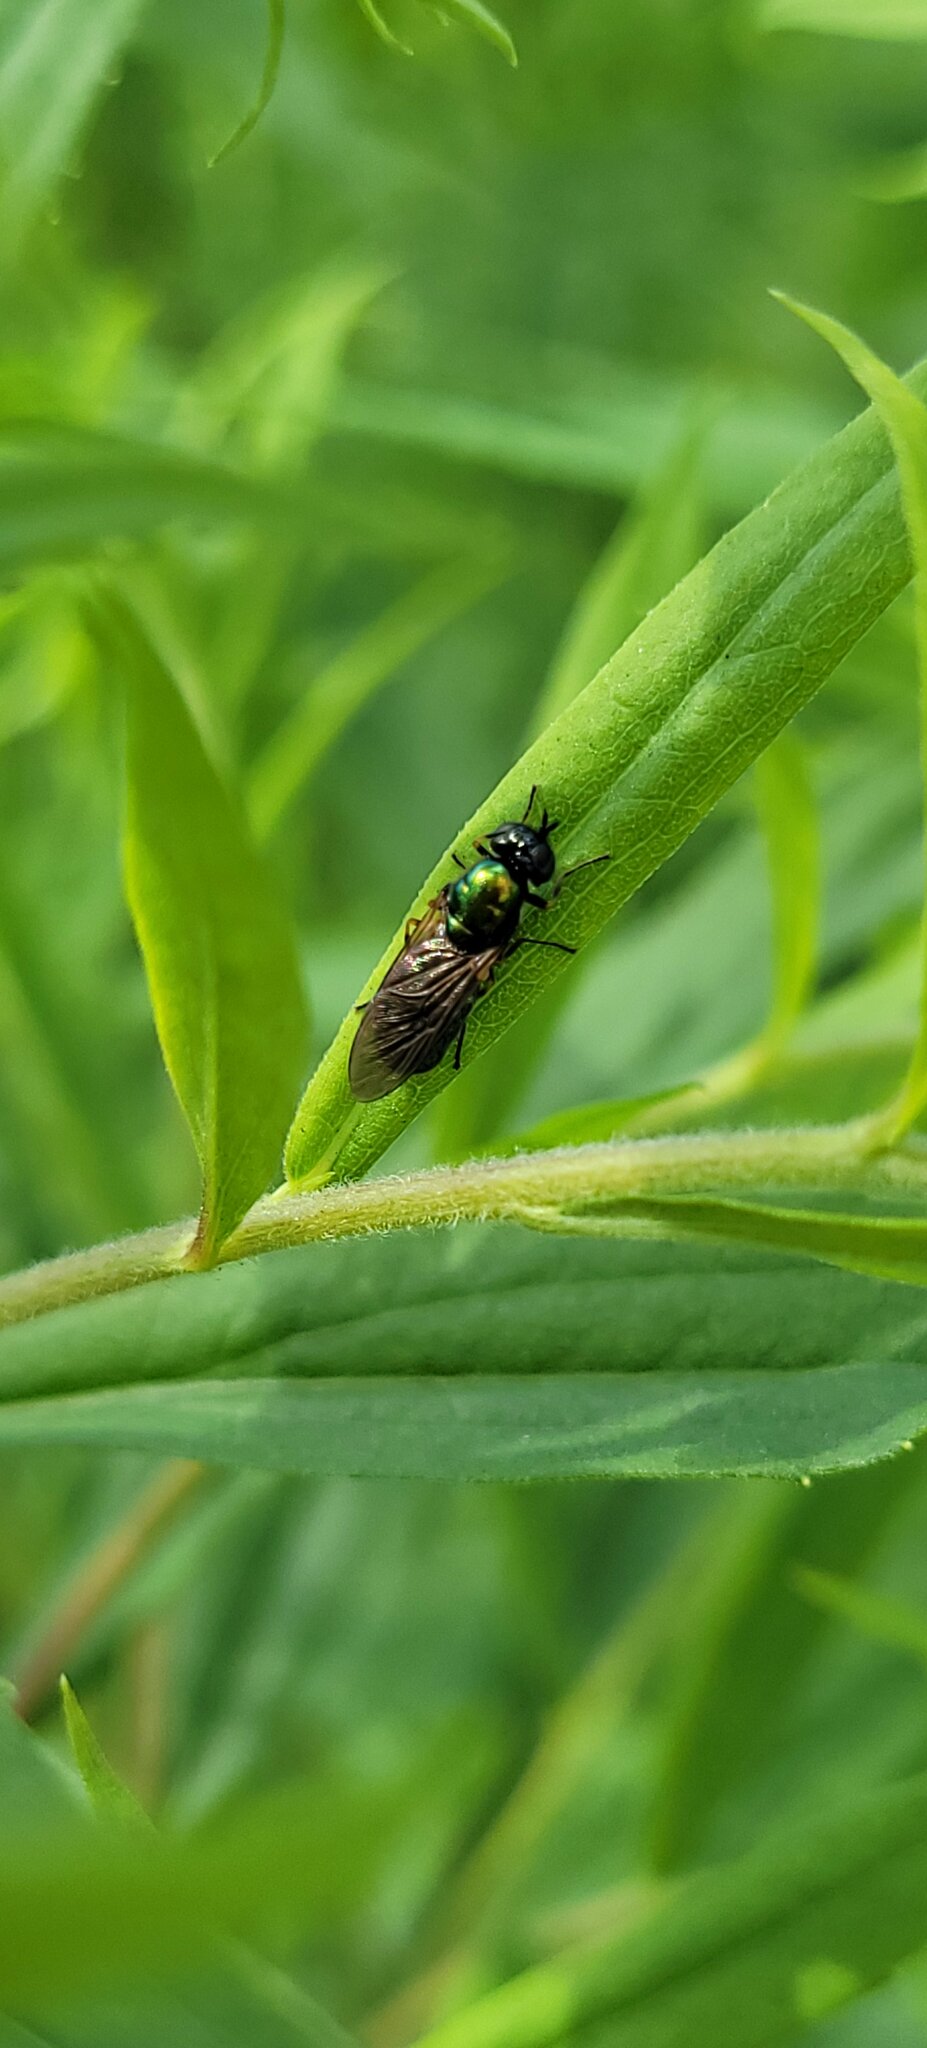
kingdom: Animalia
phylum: Arthropoda
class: Insecta
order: Diptera
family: Stratiomyidae
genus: Chloromyia
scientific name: Chloromyia formosa
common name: Soldier fly
